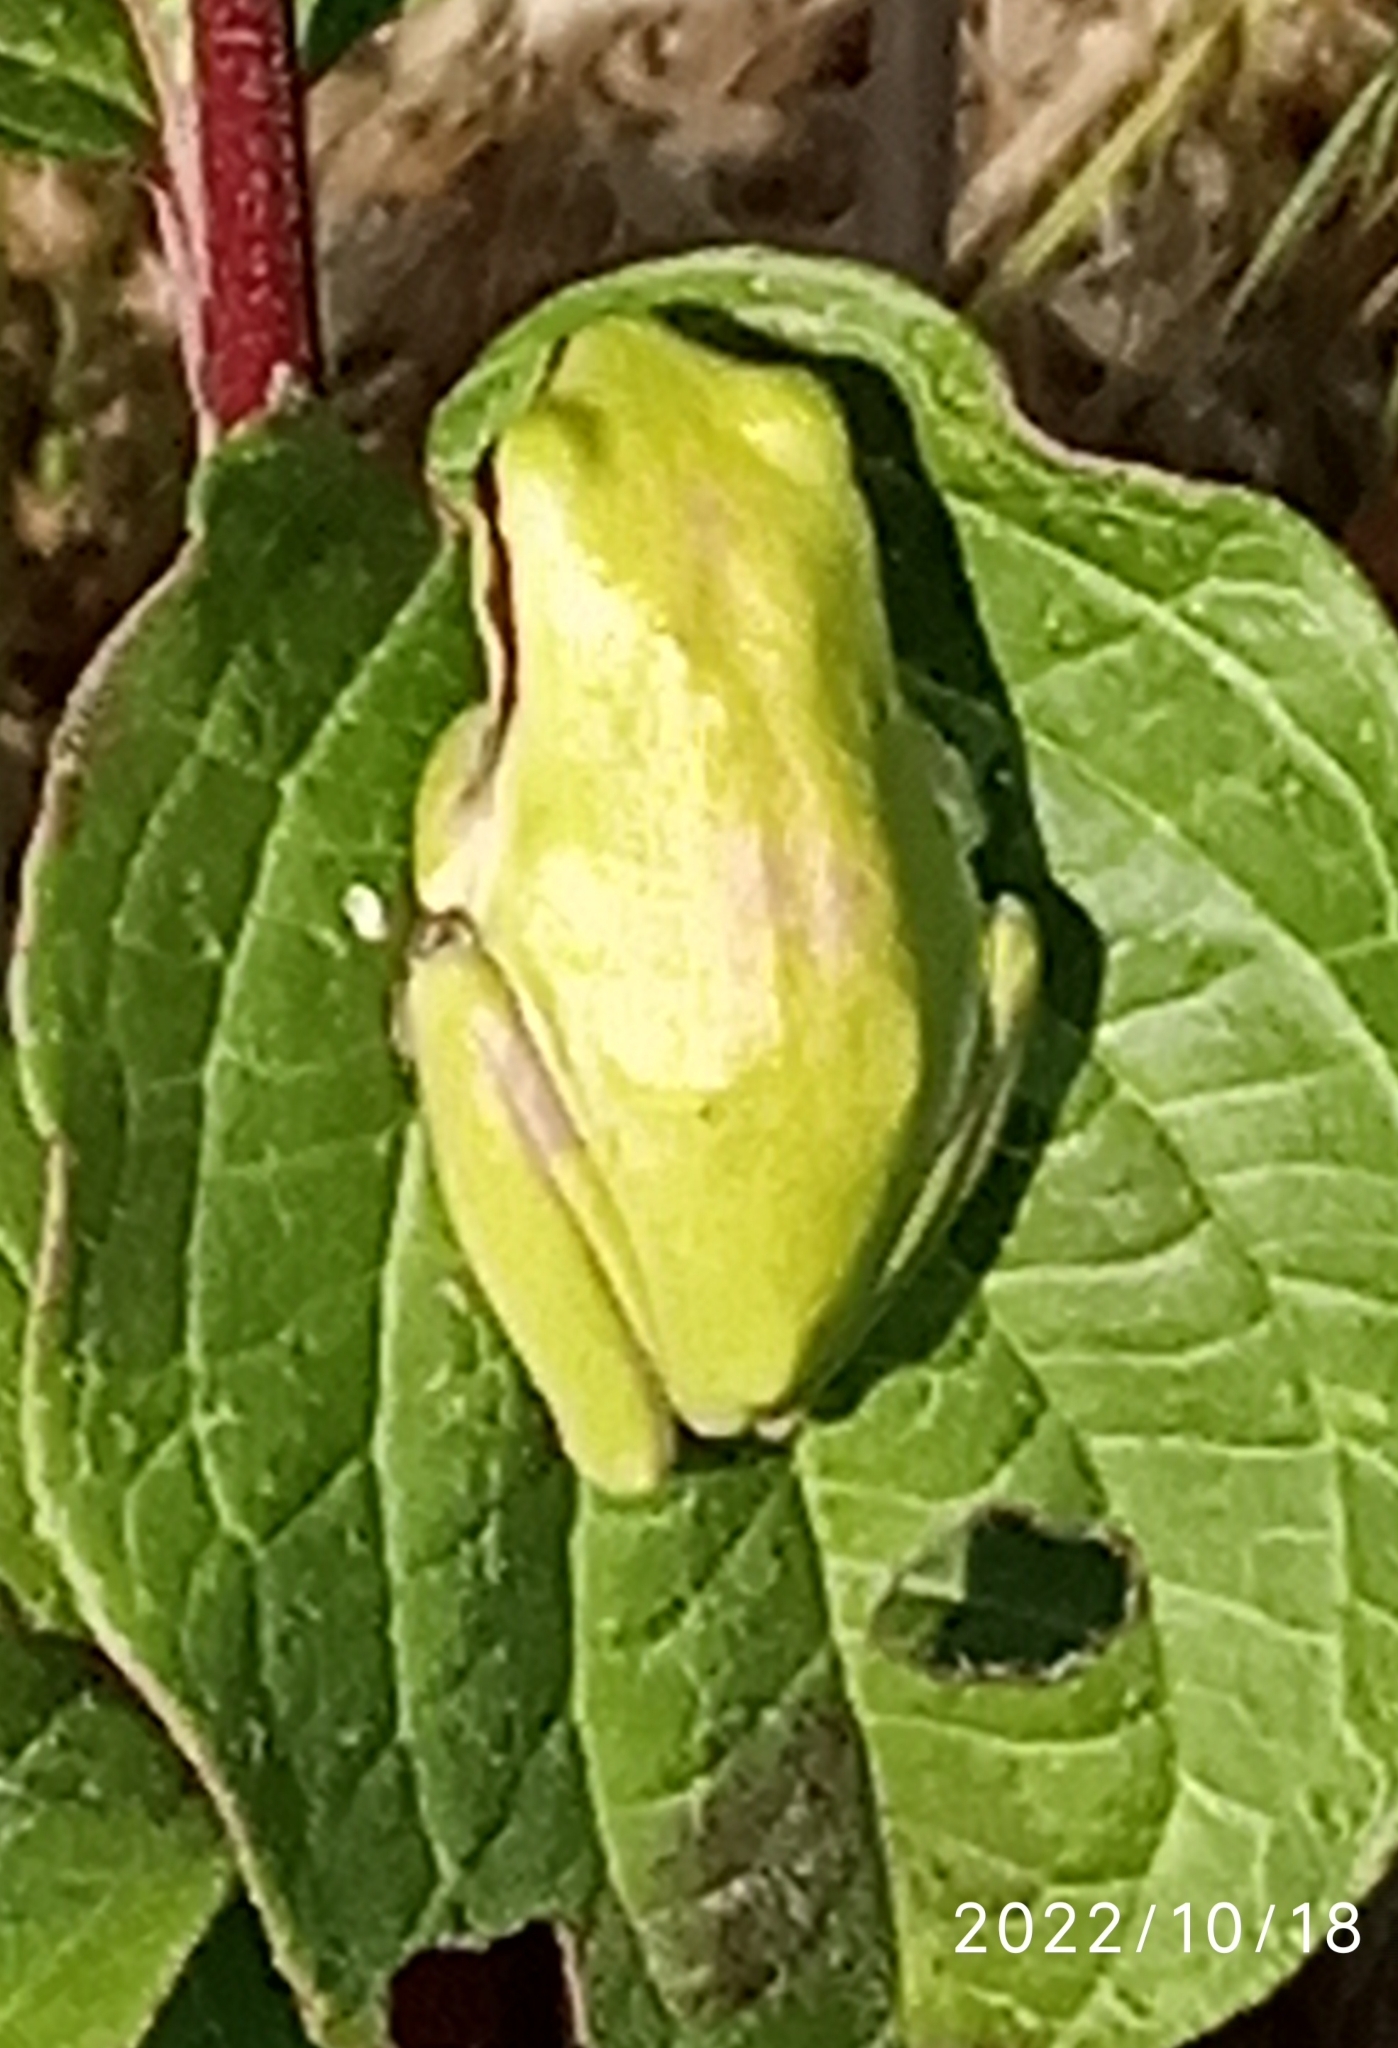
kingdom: Animalia
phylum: Chordata
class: Amphibia
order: Anura
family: Hylidae
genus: Hyla
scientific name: Hyla meridionalis
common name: Stripeless tree frog
